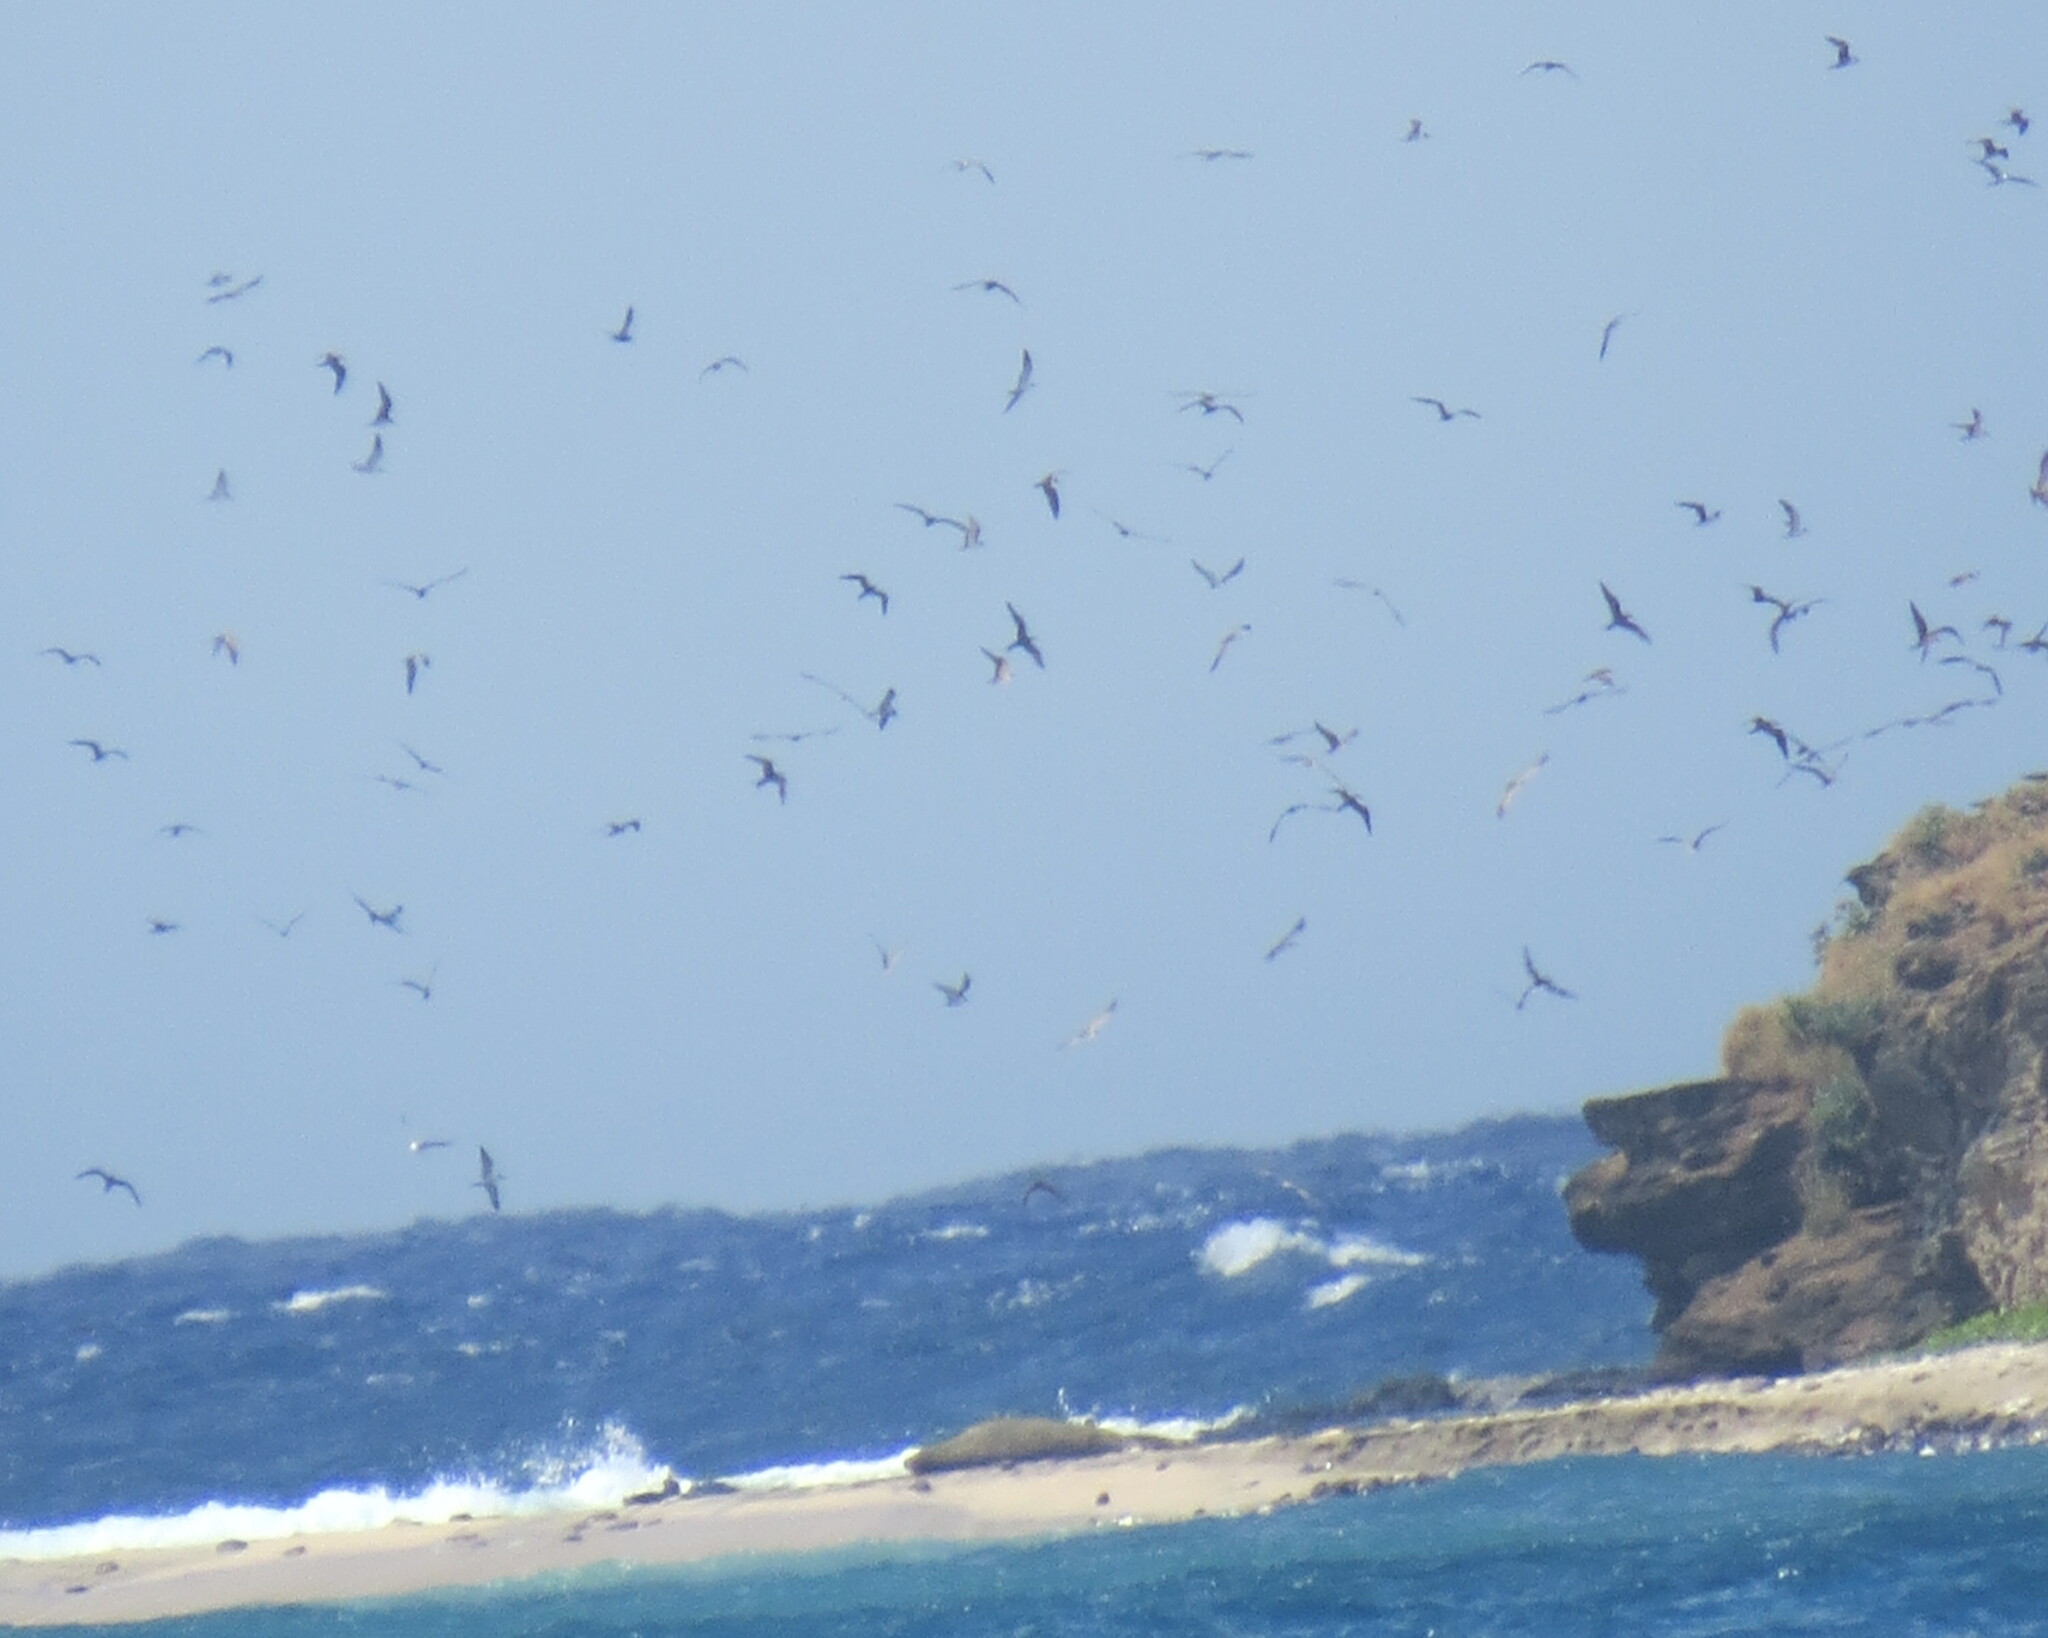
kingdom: Animalia
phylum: Chordata
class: Aves
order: Charadriiformes
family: Laridae
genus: Onychoprion
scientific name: Onychoprion fuscatus
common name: Sooty tern
